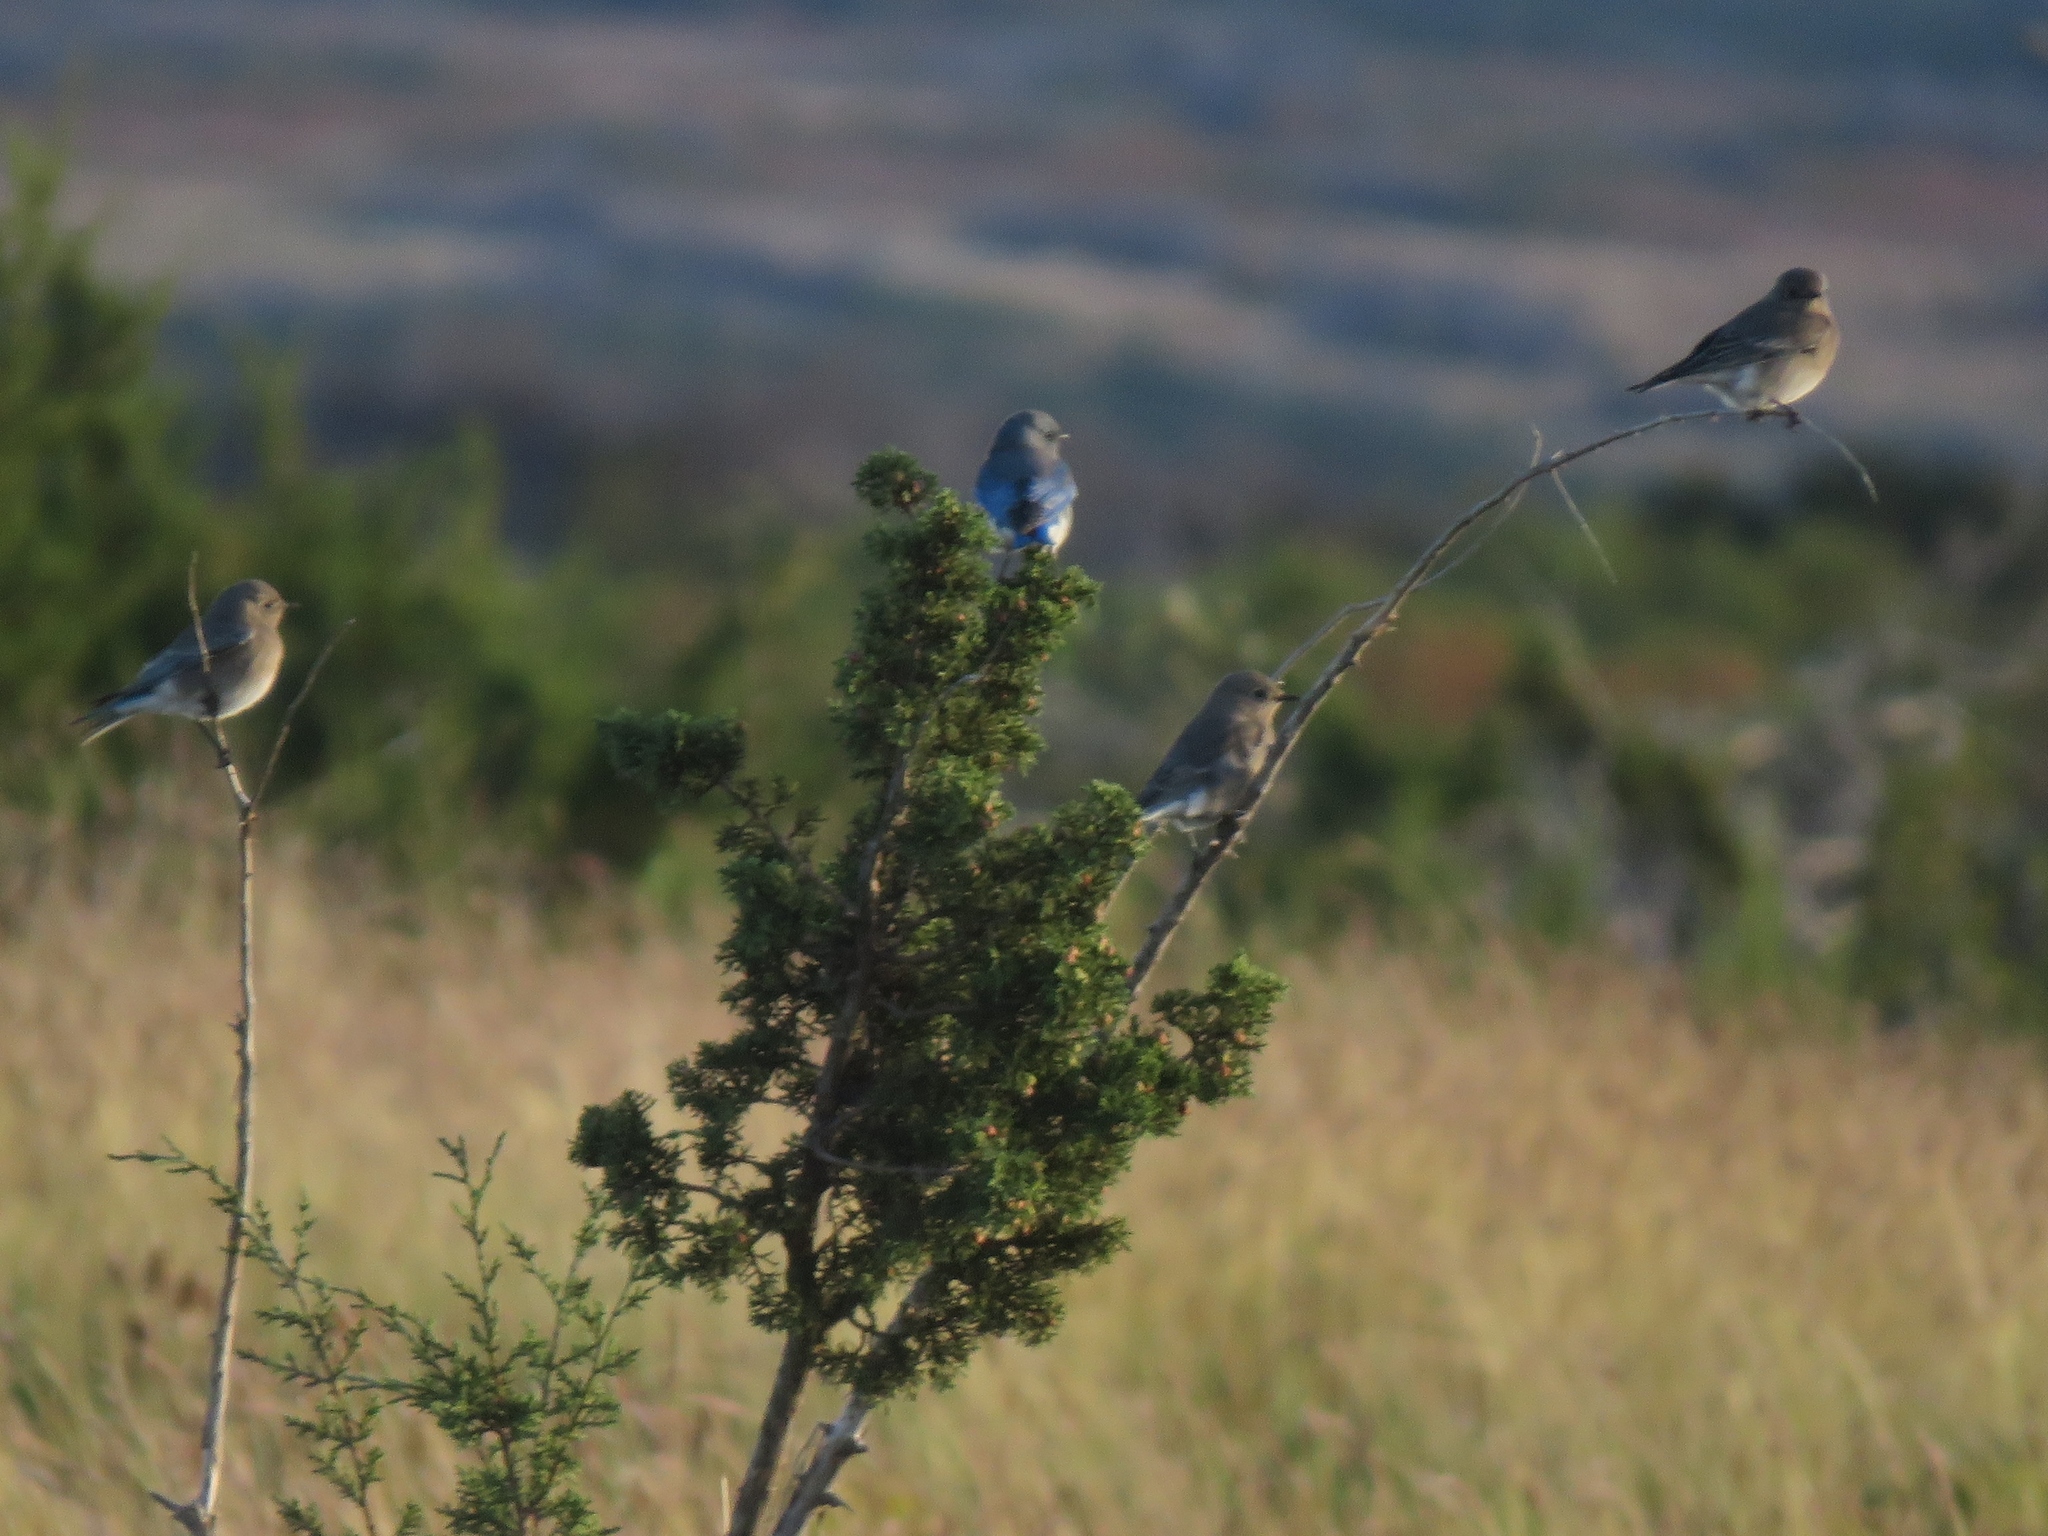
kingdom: Animalia
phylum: Chordata
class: Aves
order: Passeriformes
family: Turdidae
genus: Sialia
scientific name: Sialia currucoides
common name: Mountain bluebird
